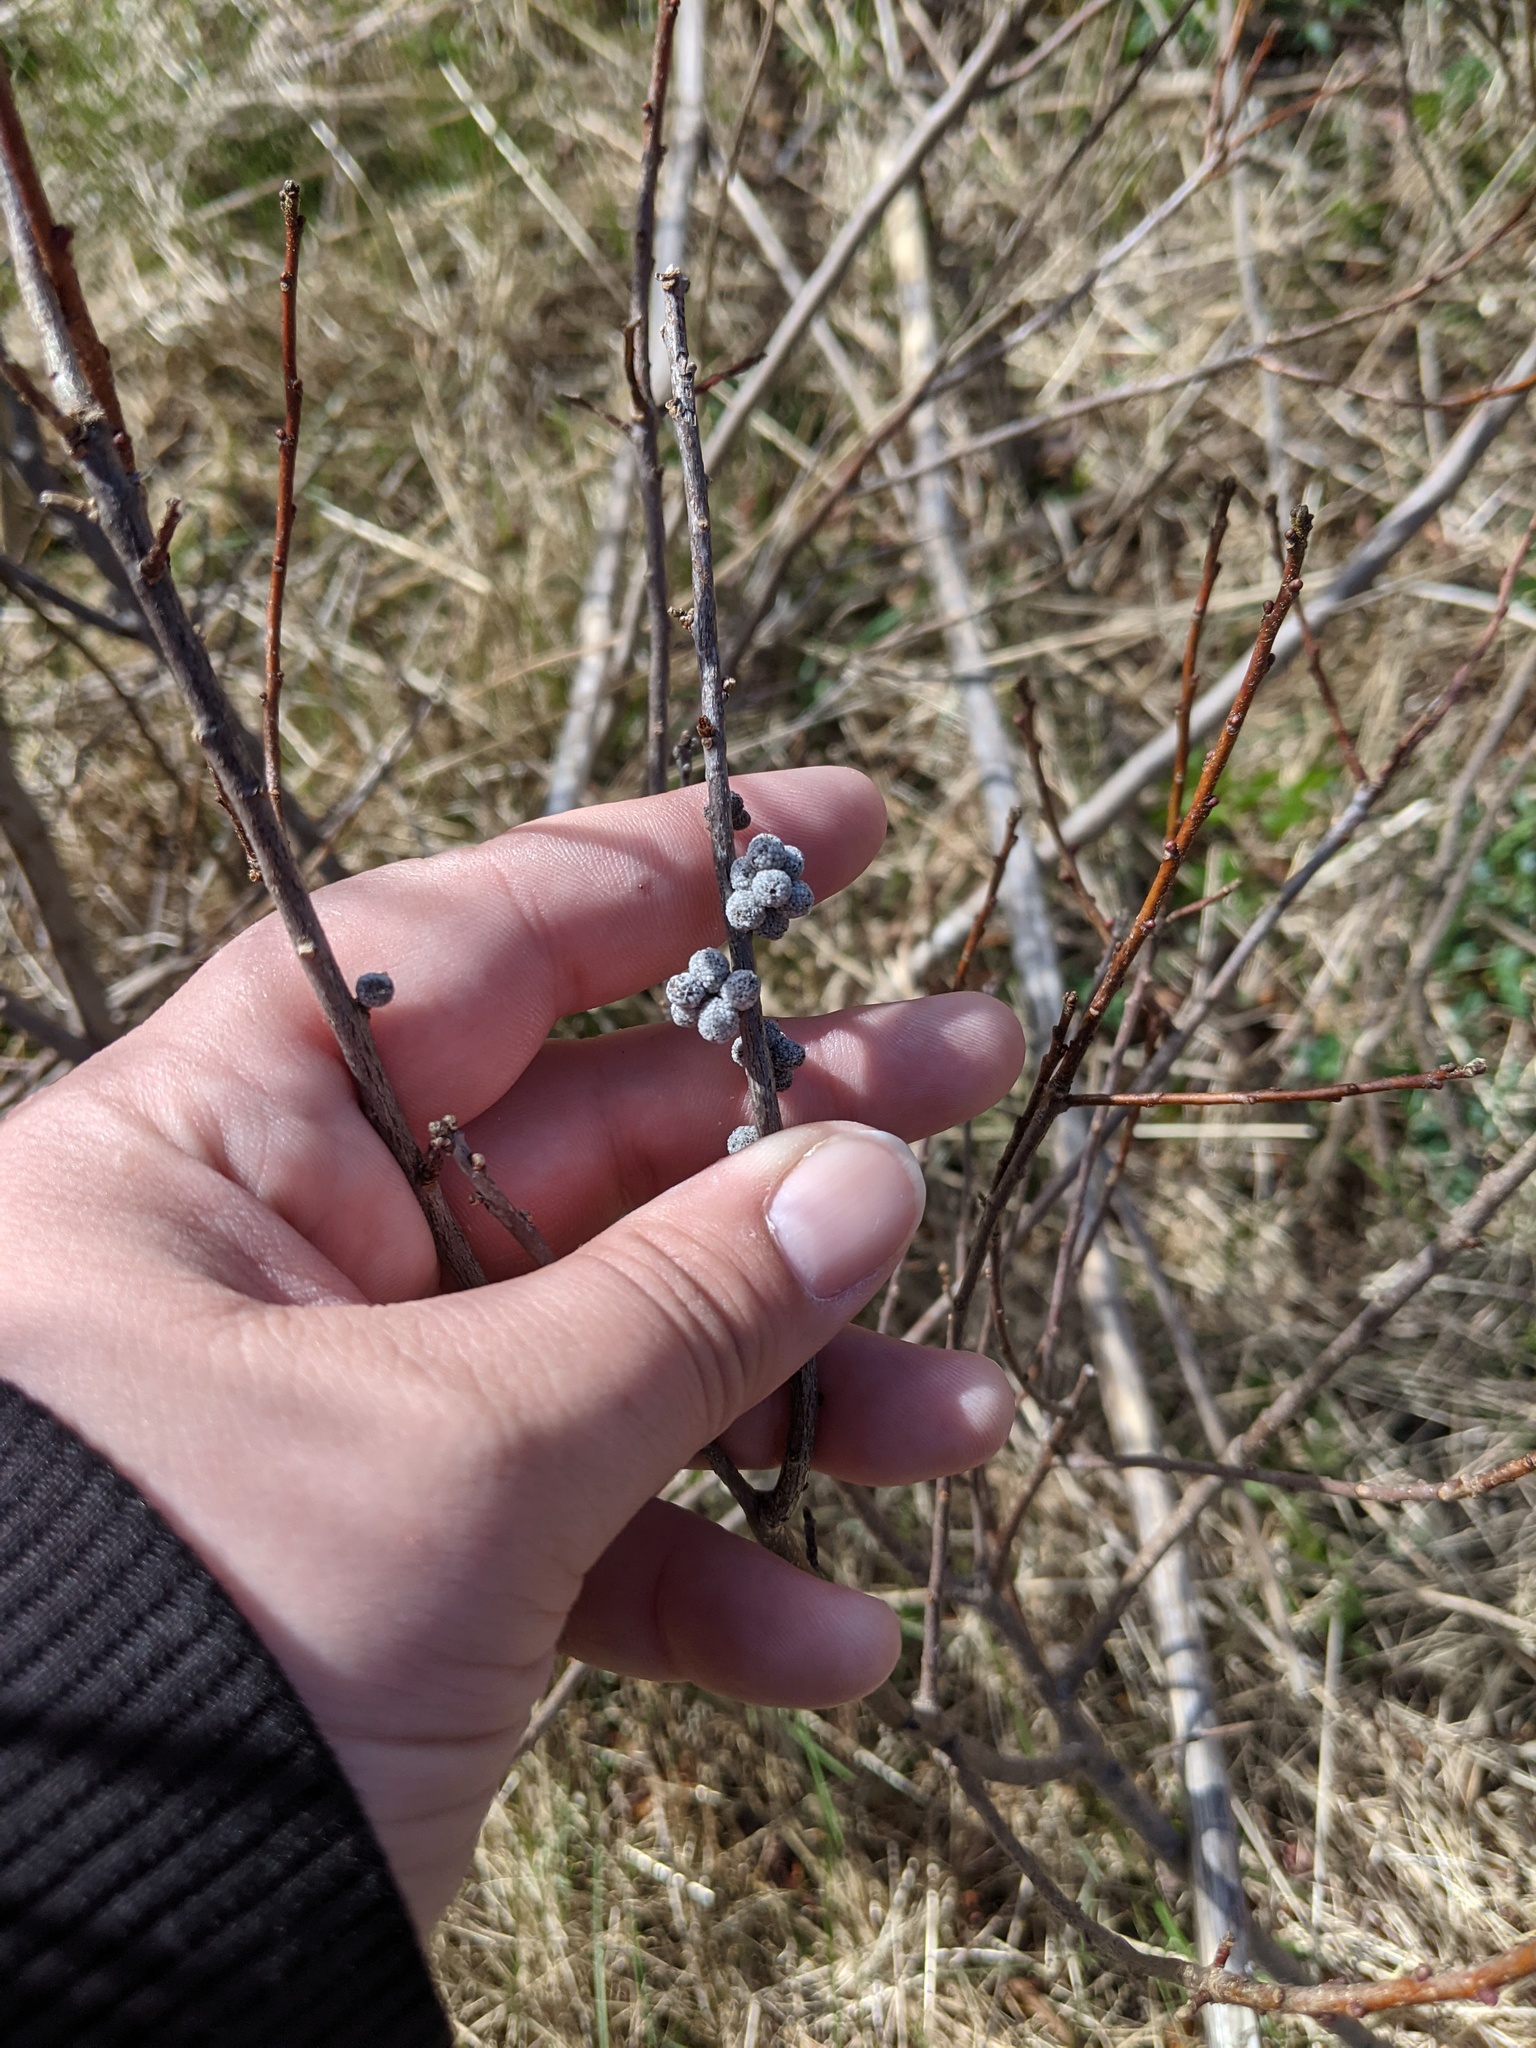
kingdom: Plantae
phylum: Tracheophyta
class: Magnoliopsida
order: Fagales
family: Myricaceae
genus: Morella
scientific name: Morella pensylvanica
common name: Northern bayberry
